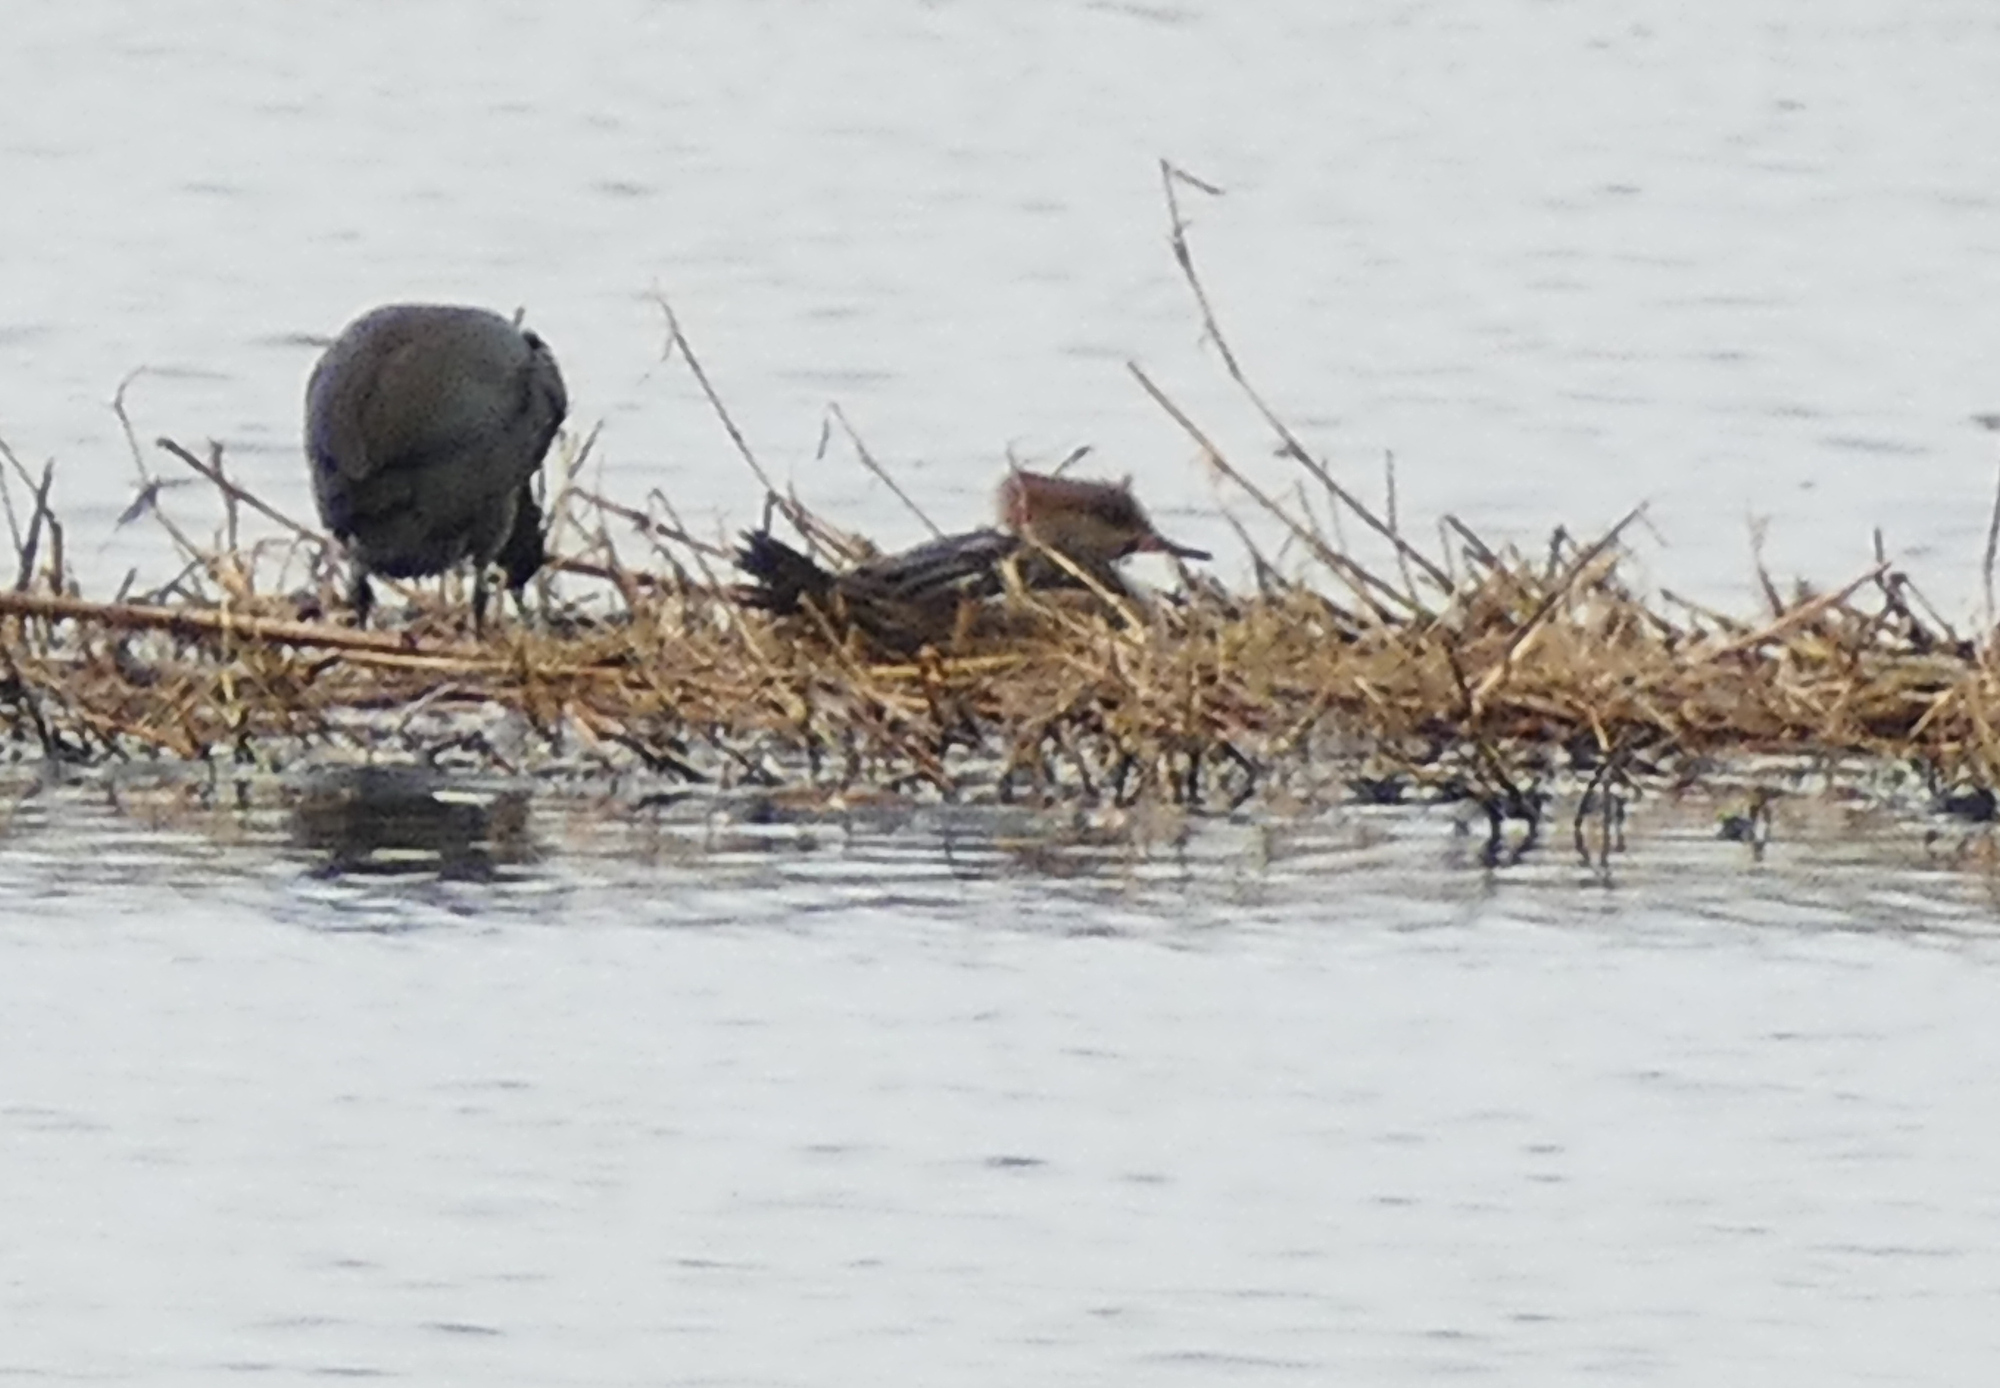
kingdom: Animalia
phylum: Chordata
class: Aves
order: Anseriformes
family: Anatidae
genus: Lophodytes
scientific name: Lophodytes cucullatus
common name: Hooded merganser
